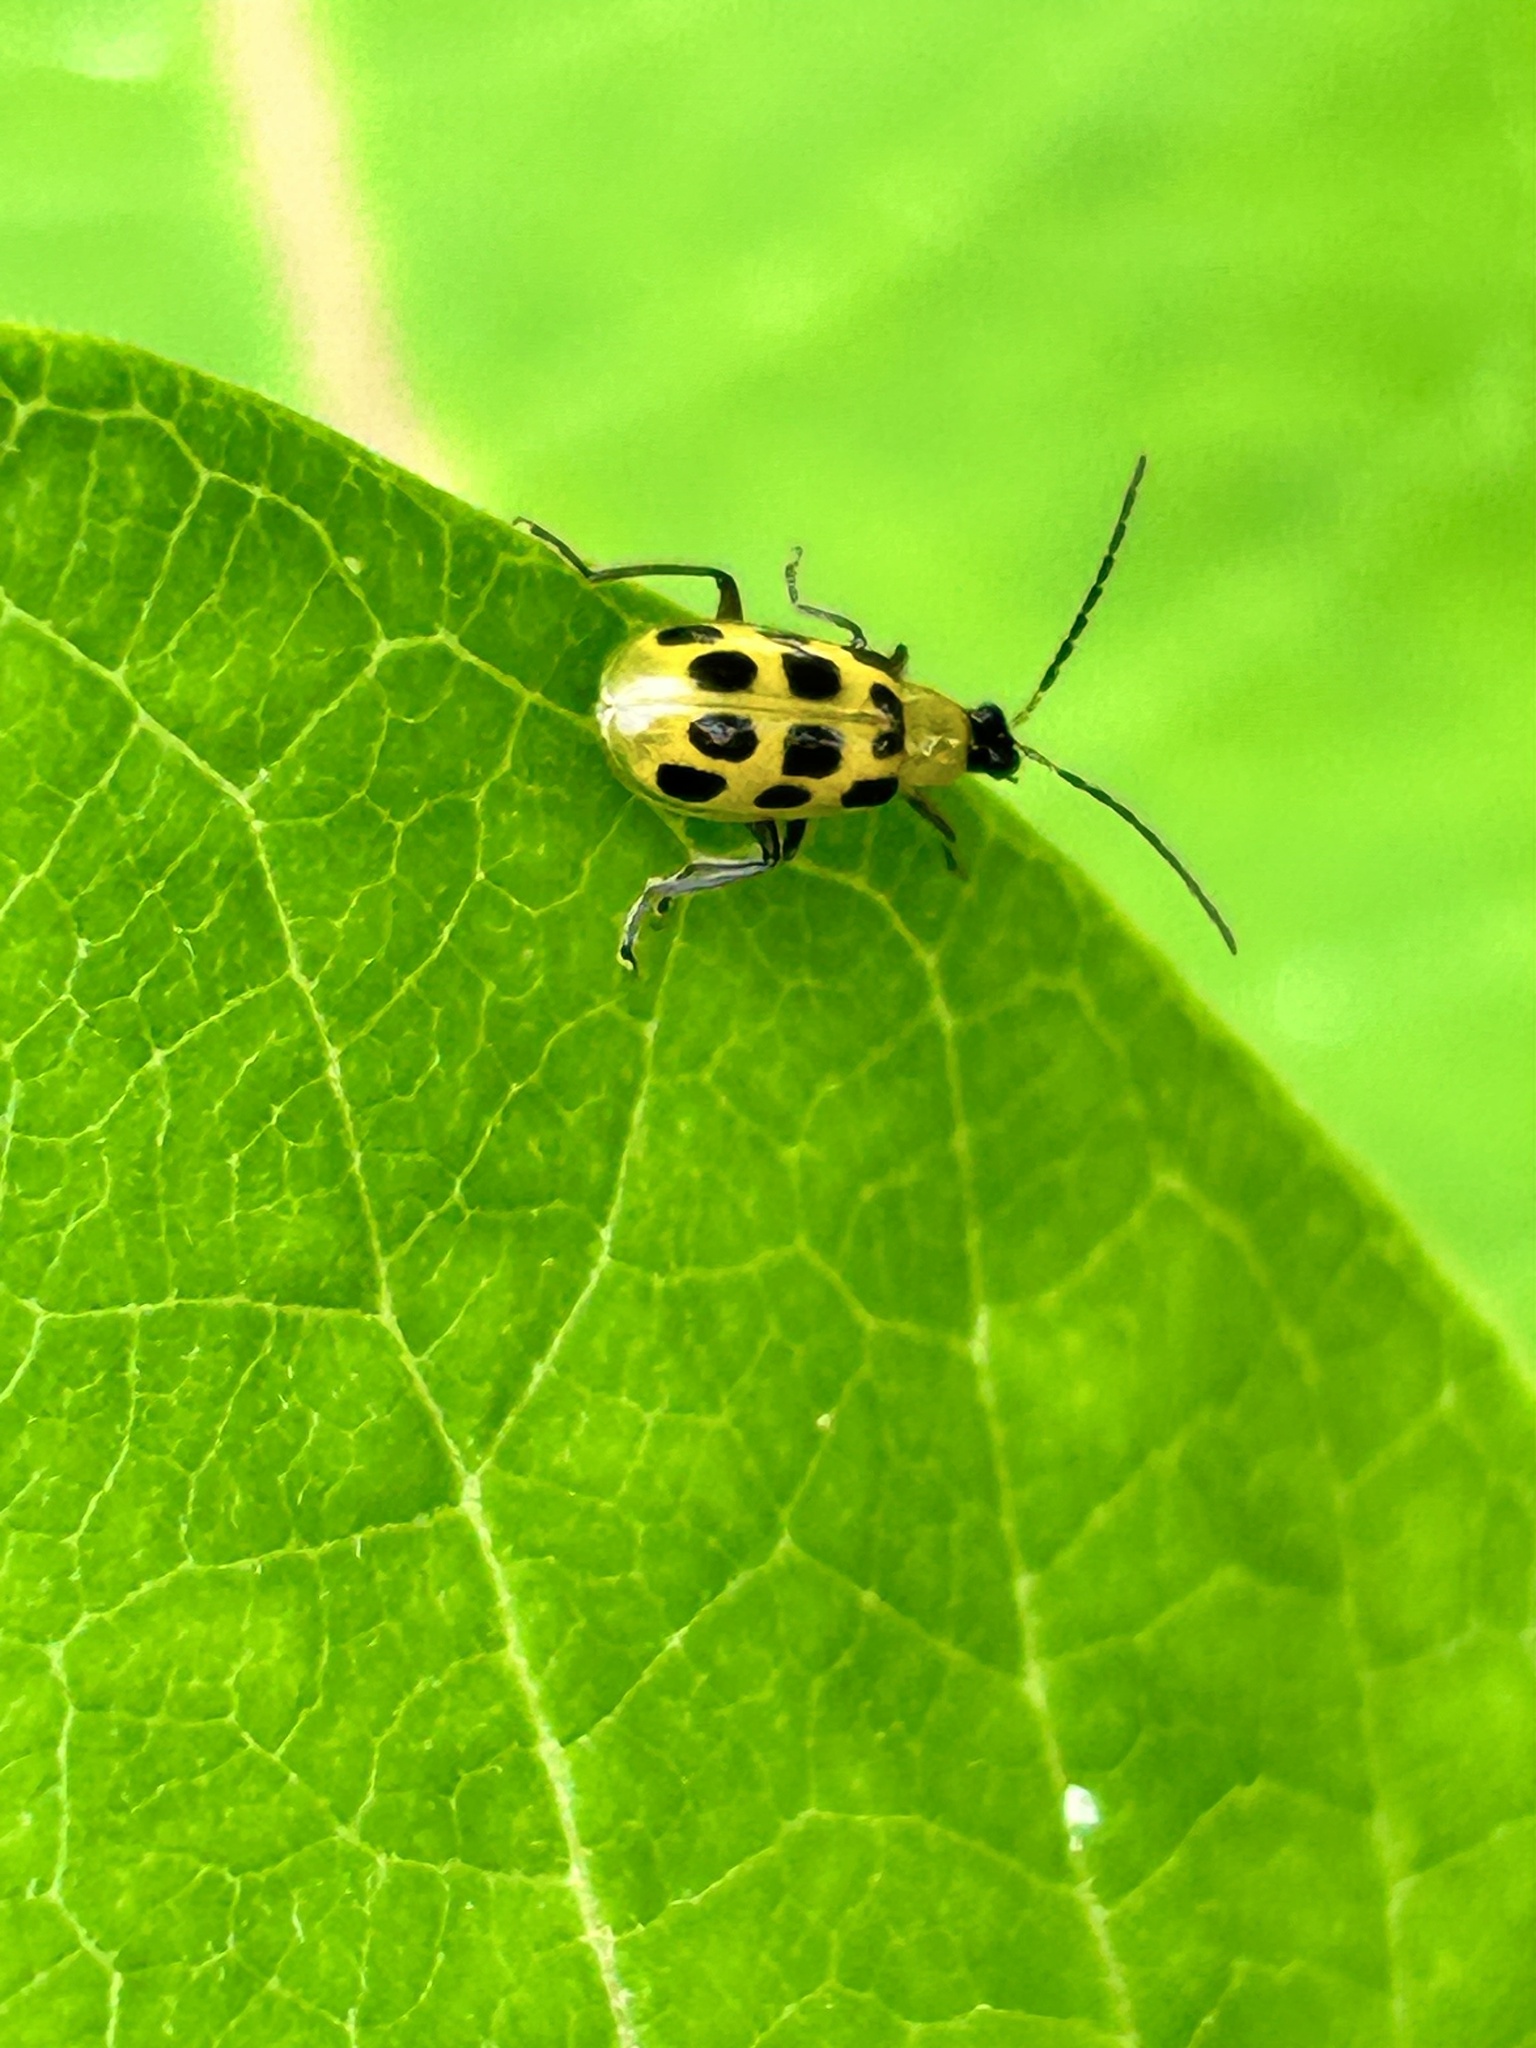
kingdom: Animalia
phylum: Arthropoda
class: Insecta
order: Coleoptera
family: Chrysomelidae
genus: Diabrotica
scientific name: Diabrotica undecimpunctata
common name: Spotted cucumber beetle
